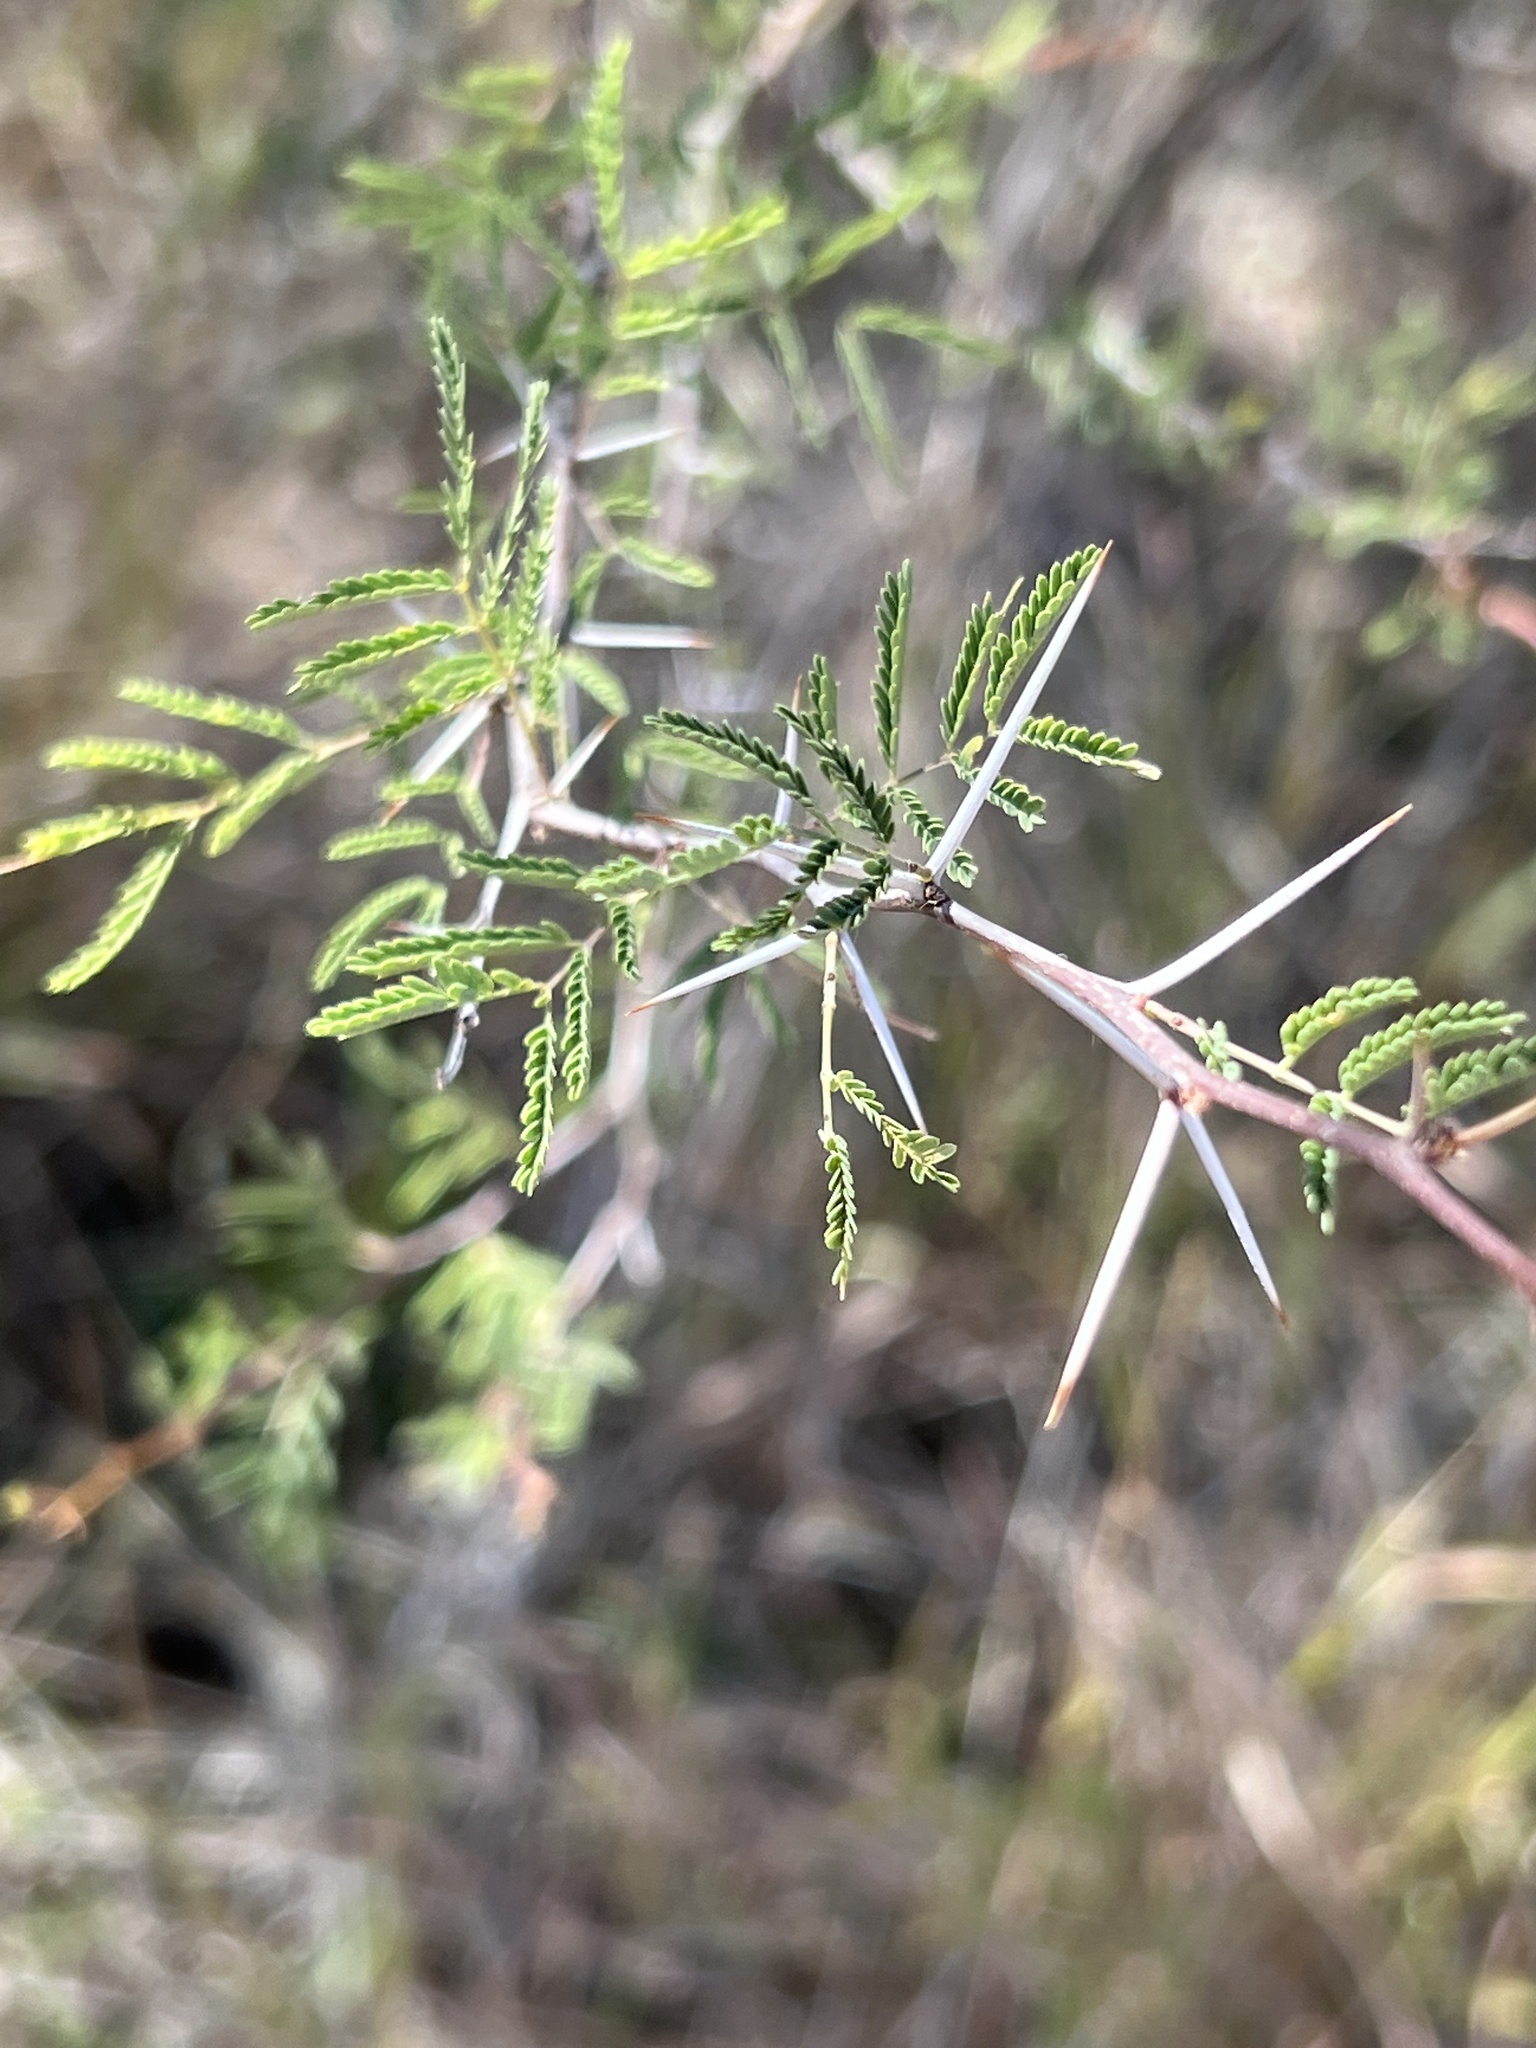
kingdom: Plantae
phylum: Tracheophyta
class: Magnoliopsida
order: Fabales
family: Fabaceae
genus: Vachellia
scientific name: Vachellia farnesiana
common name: Sweet acacia
